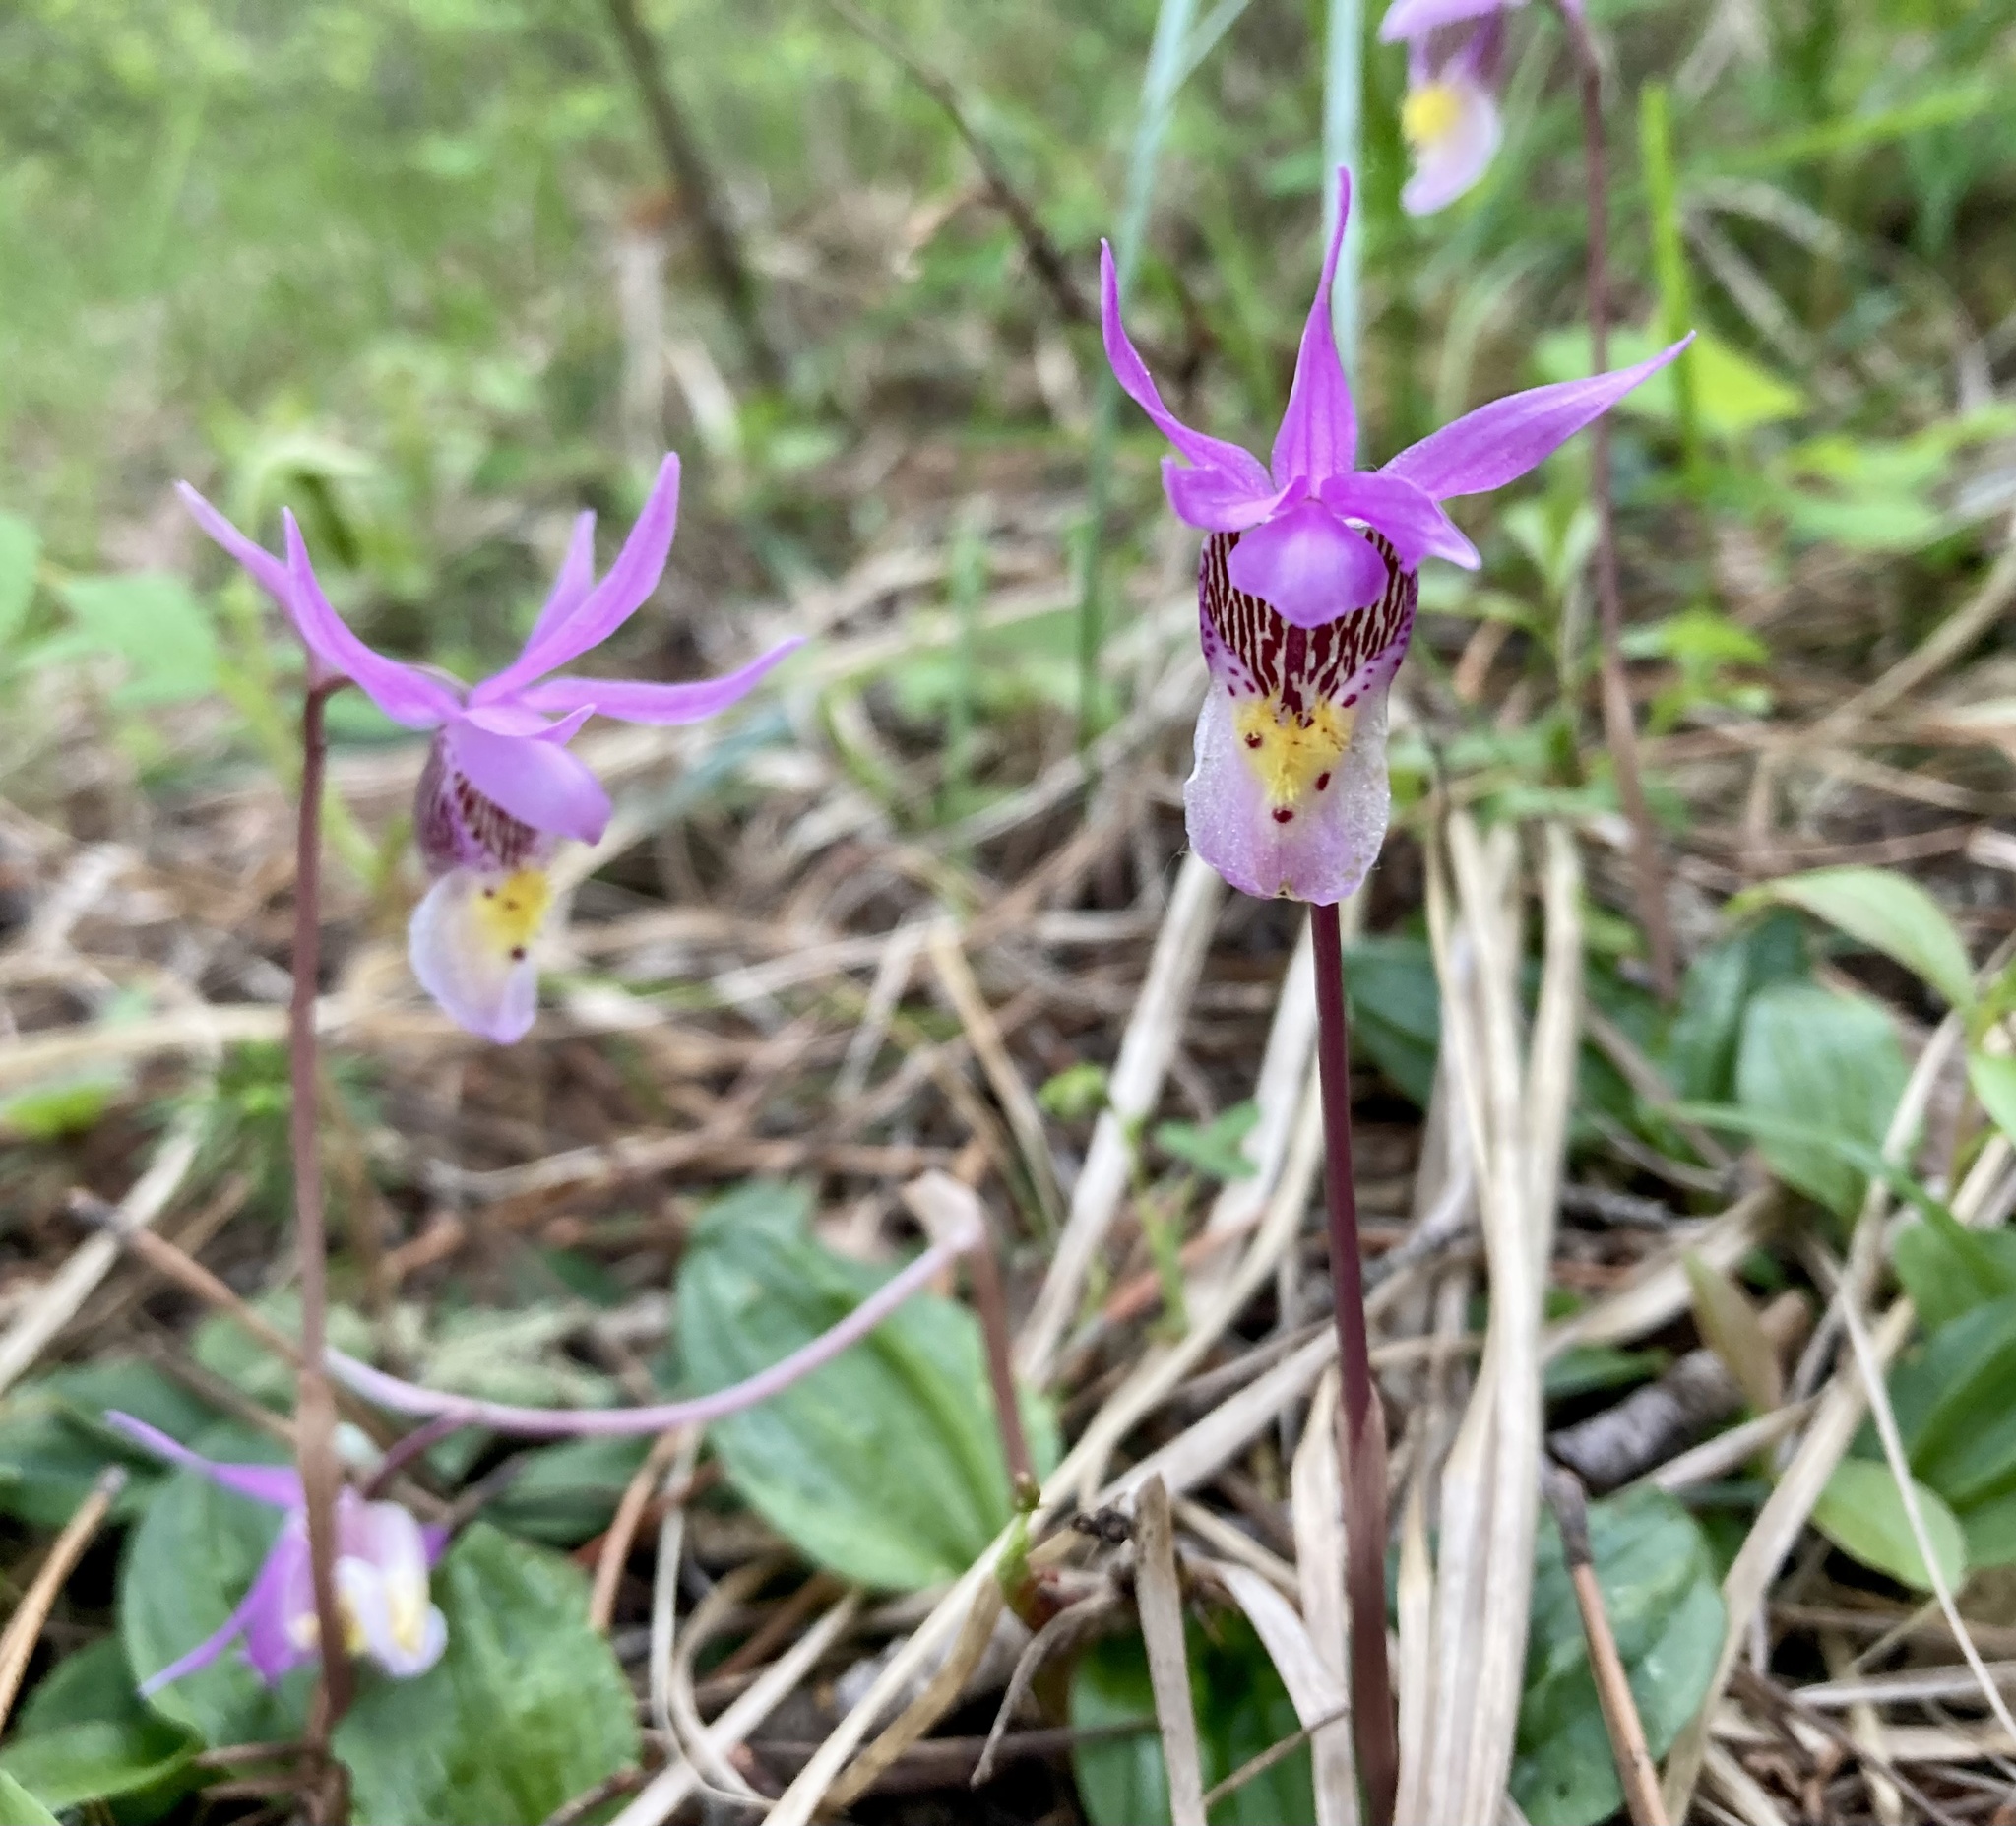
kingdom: Plantae
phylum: Tracheophyta
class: Liliopsida
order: Asparagales
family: Orchidaceae
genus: Calypso
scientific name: Calypso bulbosa
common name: Calypso
